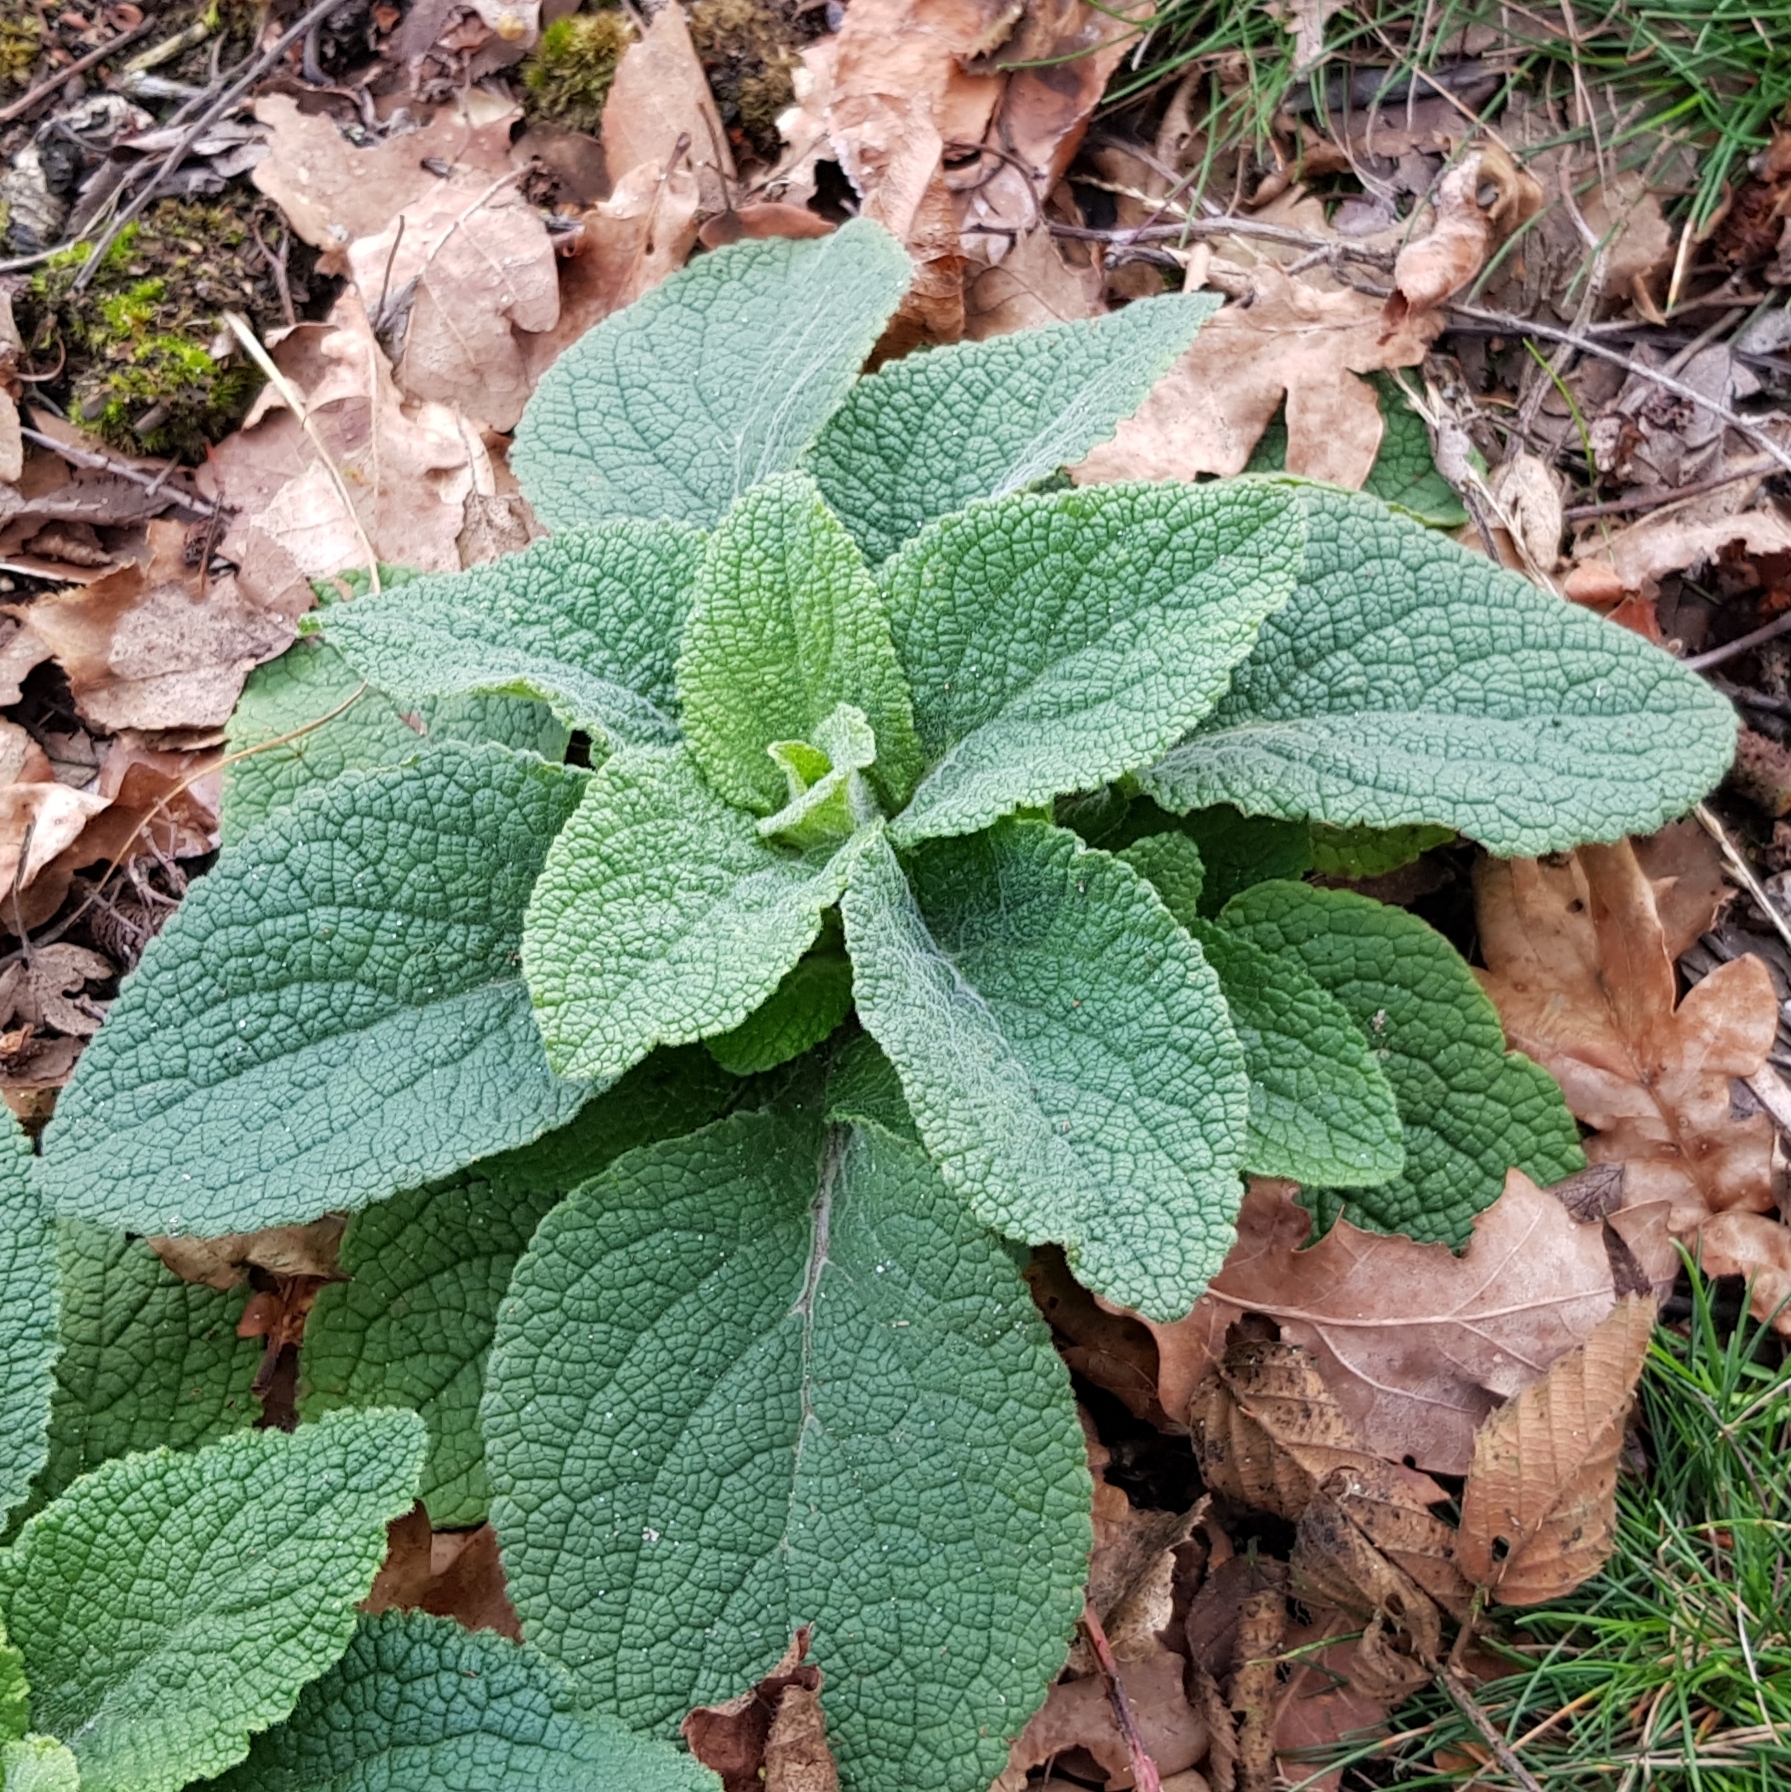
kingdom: Plantae
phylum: Tracheophyta
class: Magnoliopsida
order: Lamiales
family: Plantaginaceae
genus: Digitalis
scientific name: Digitalis purpurea
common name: Foxglove
